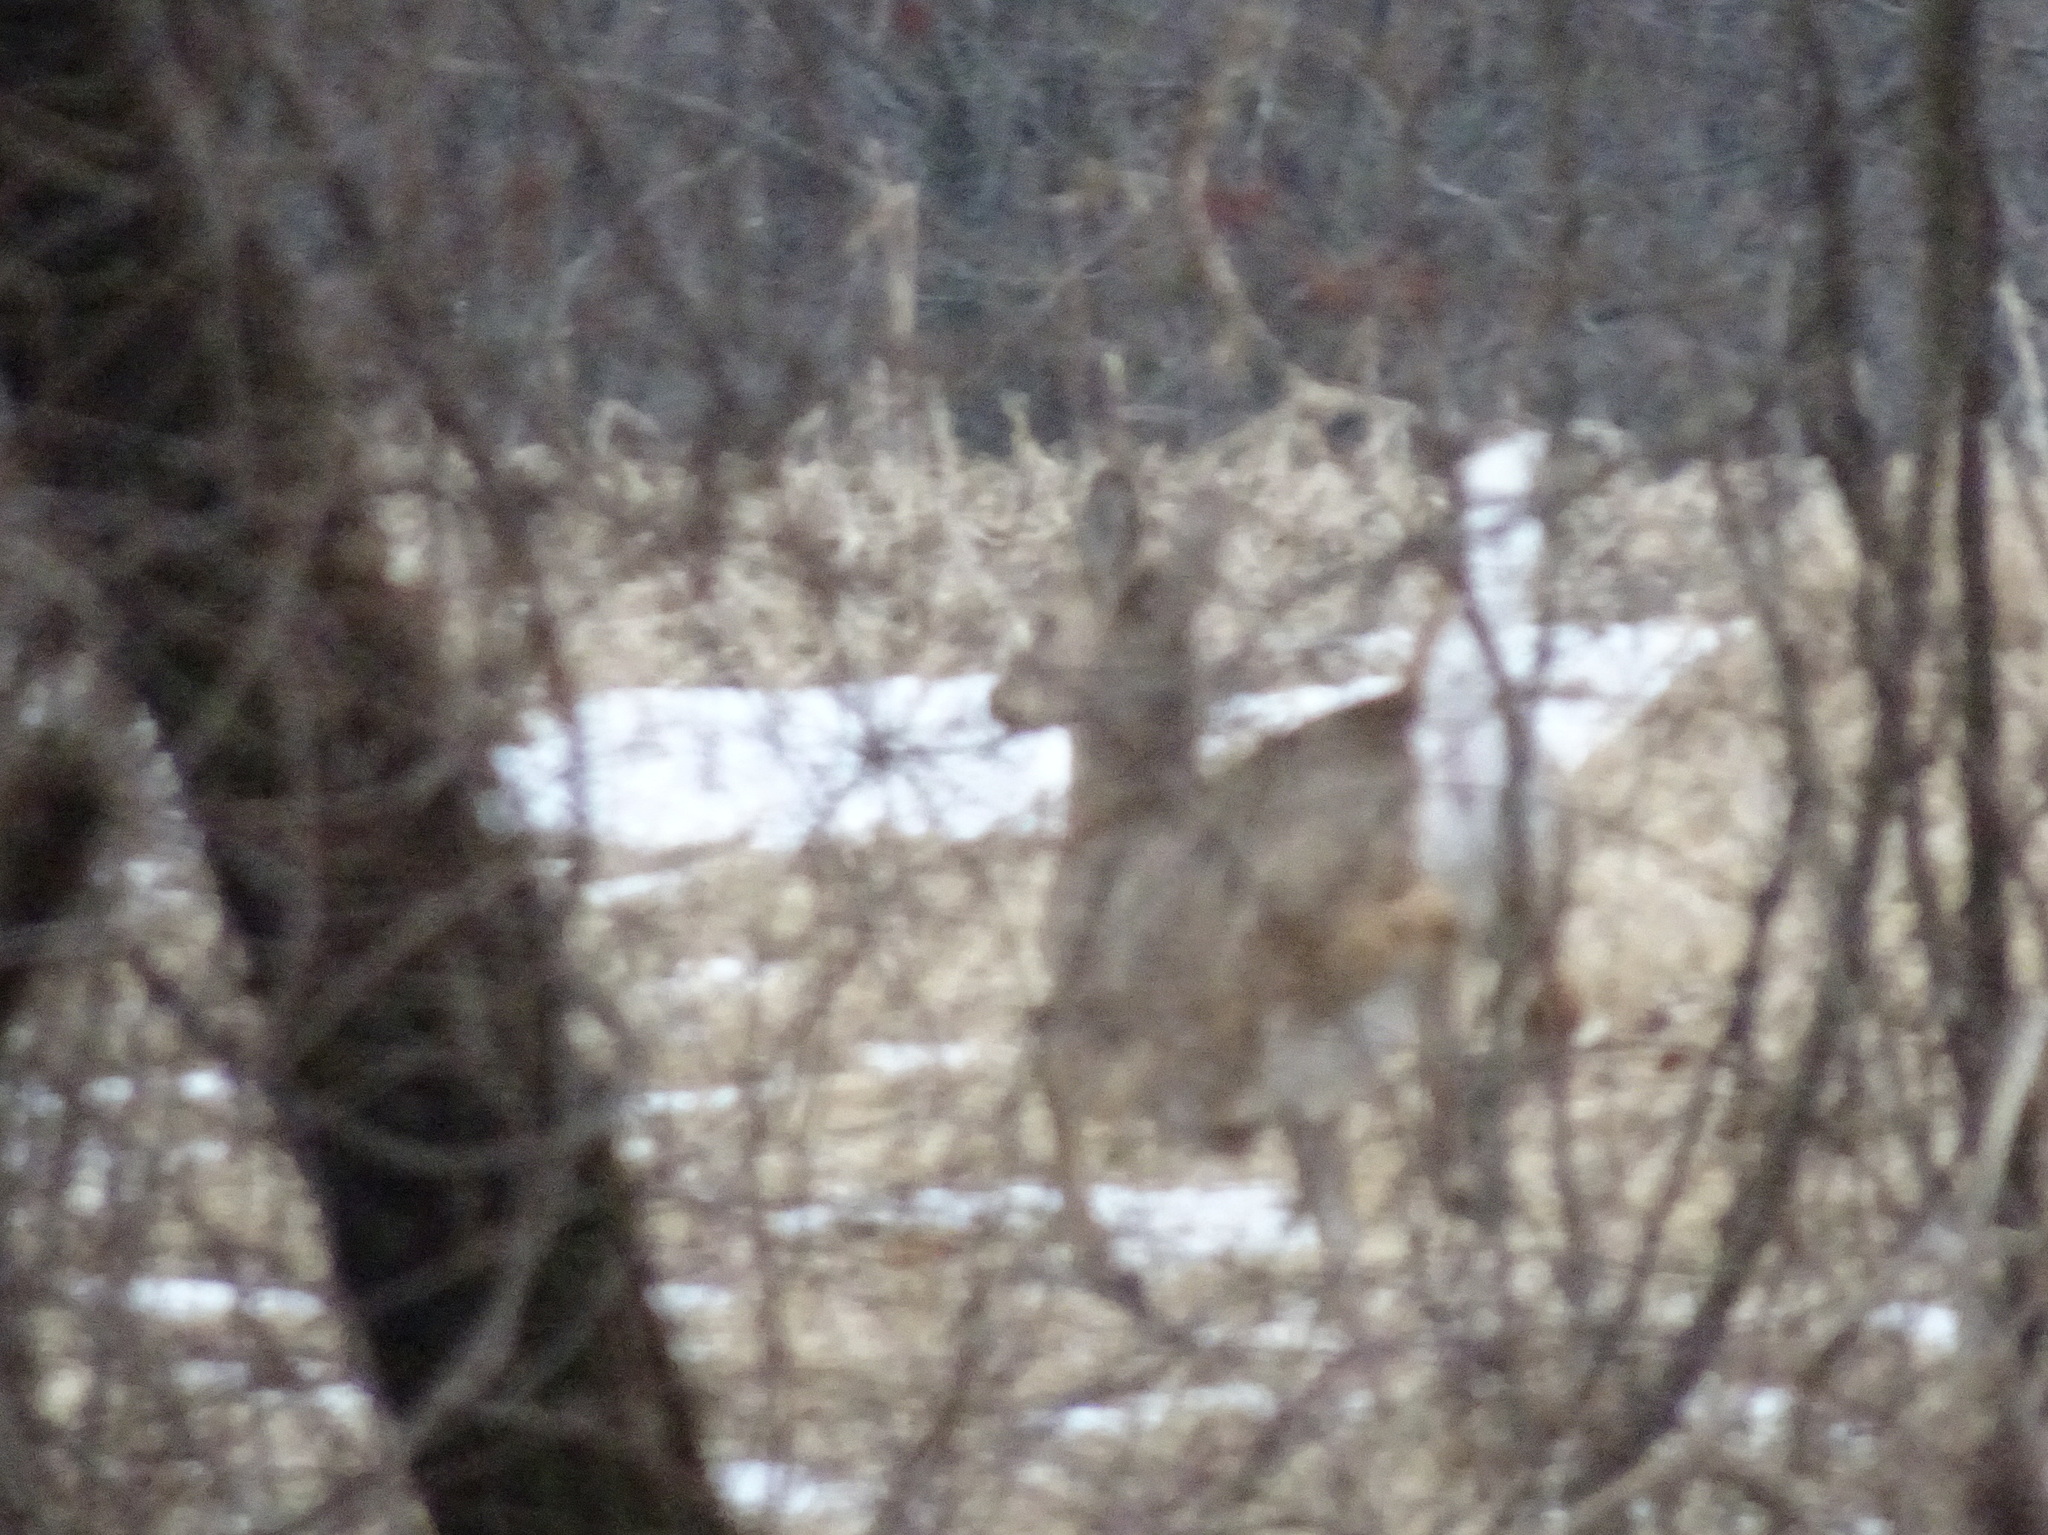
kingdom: Animalia
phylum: Chordata
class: Mammalia
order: Artiodactyla
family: Cervidae
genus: Odocoileus
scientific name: Odocoileus virginianus
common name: White-tailed deer
